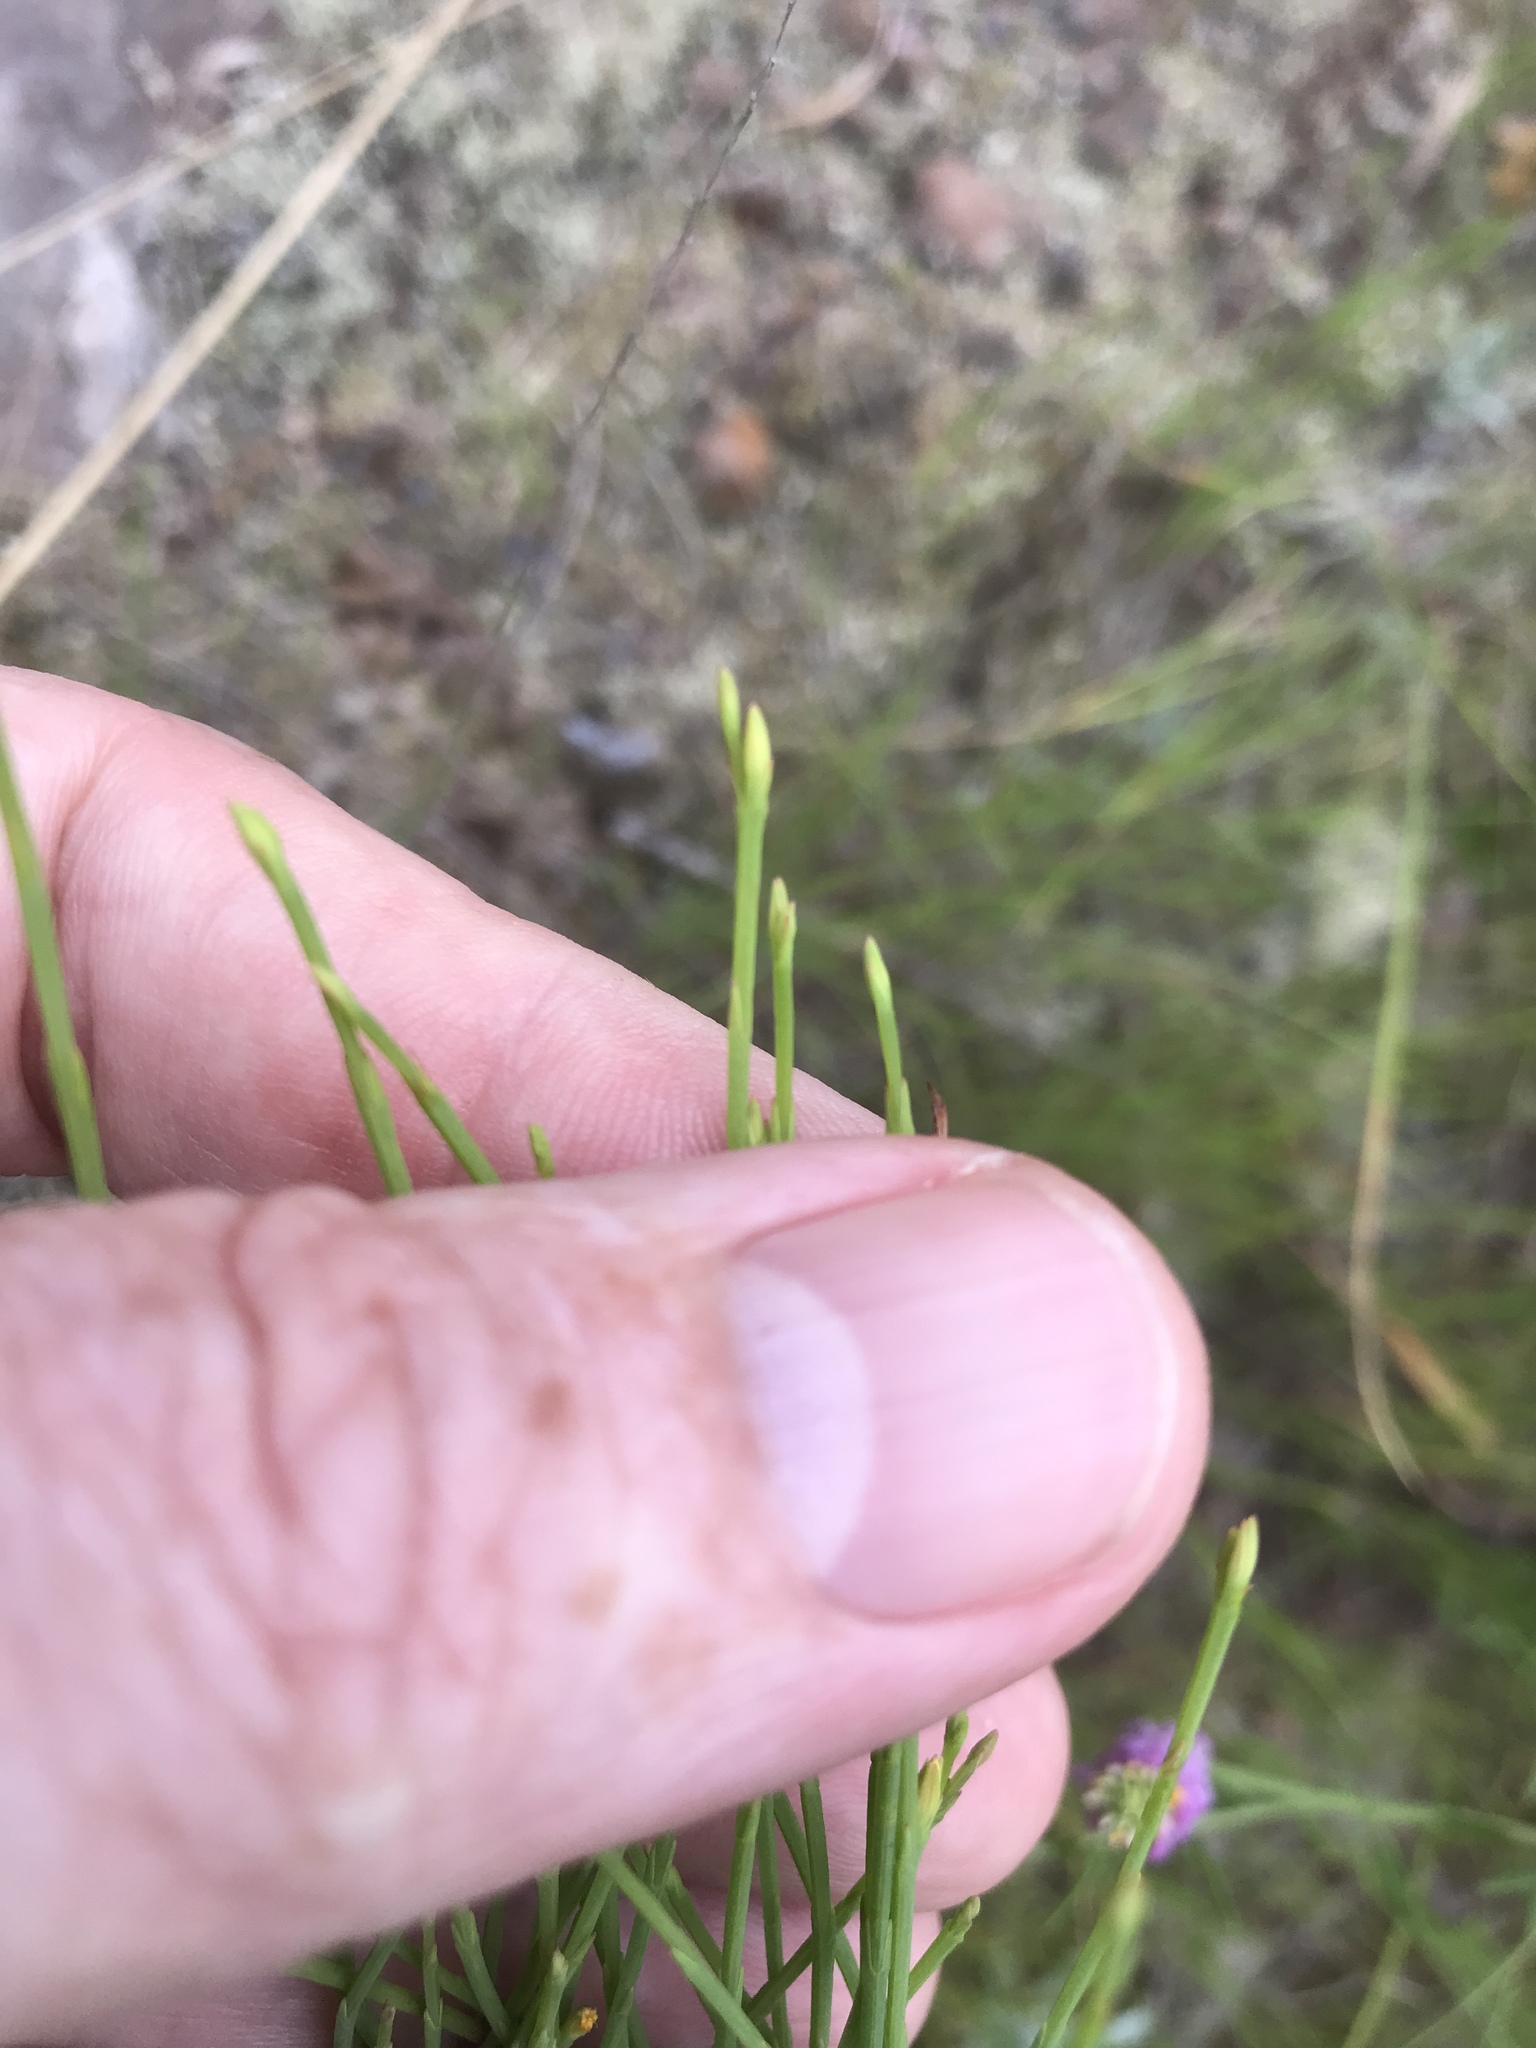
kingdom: Plantae
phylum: Tracheophyta
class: Magnoliopsida
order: Malpighiales
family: Hypericaceae
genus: Hypericum
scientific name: Hypericum gentianoides
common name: Gentian-leaved st. john's-wort
